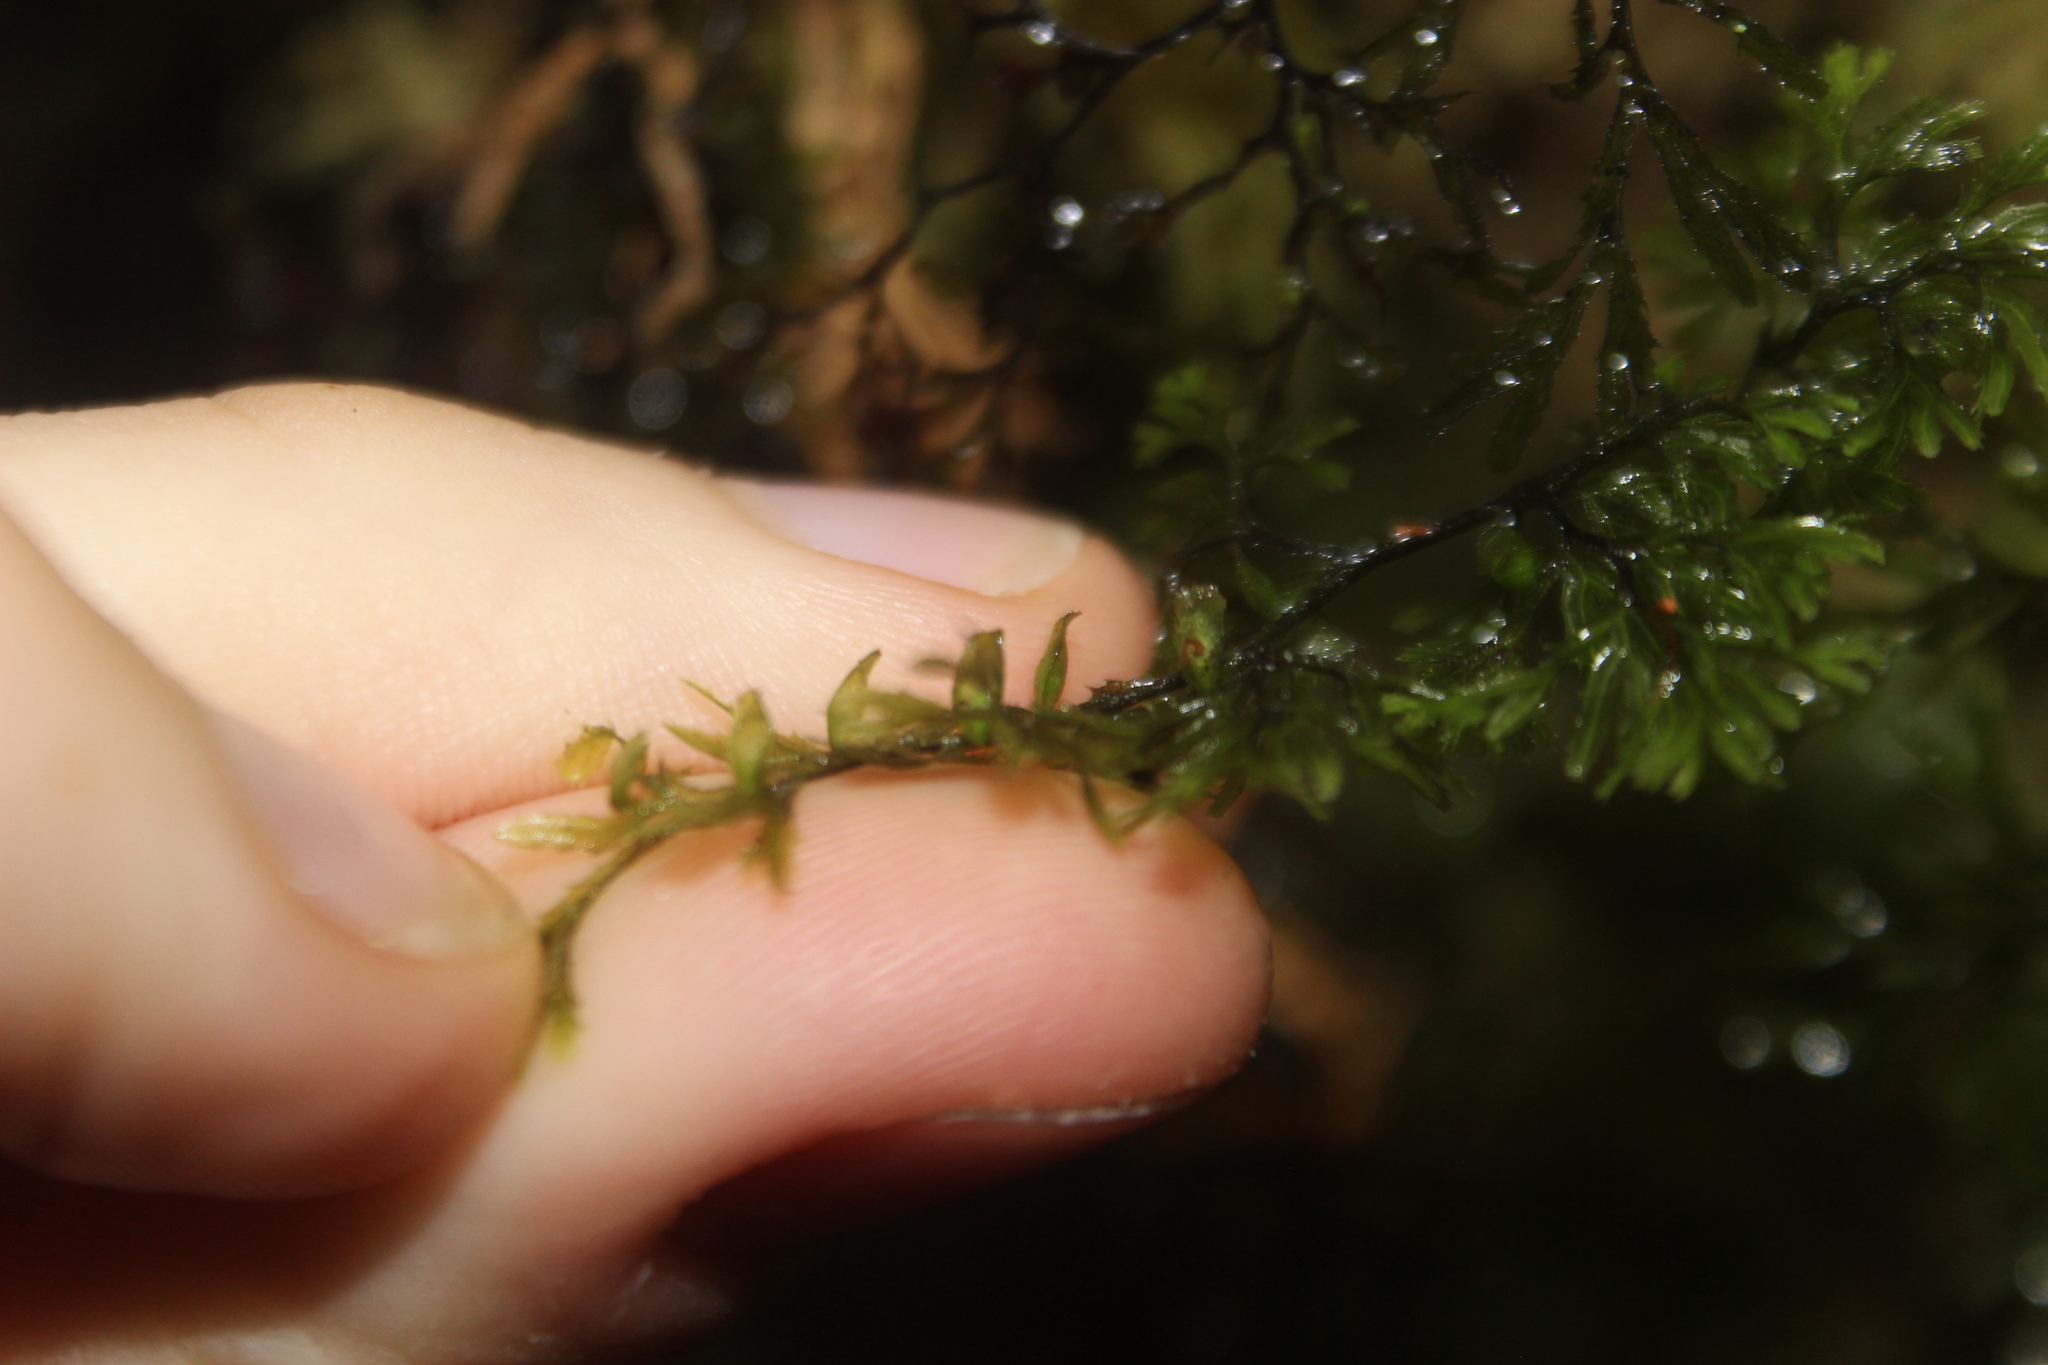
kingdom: Plantae
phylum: Tracheophyta
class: Polypodiopsida
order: Hymenophyllales
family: Hymenophyllaceae
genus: Hymenophyllum
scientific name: Hymenophyllum multifidum
